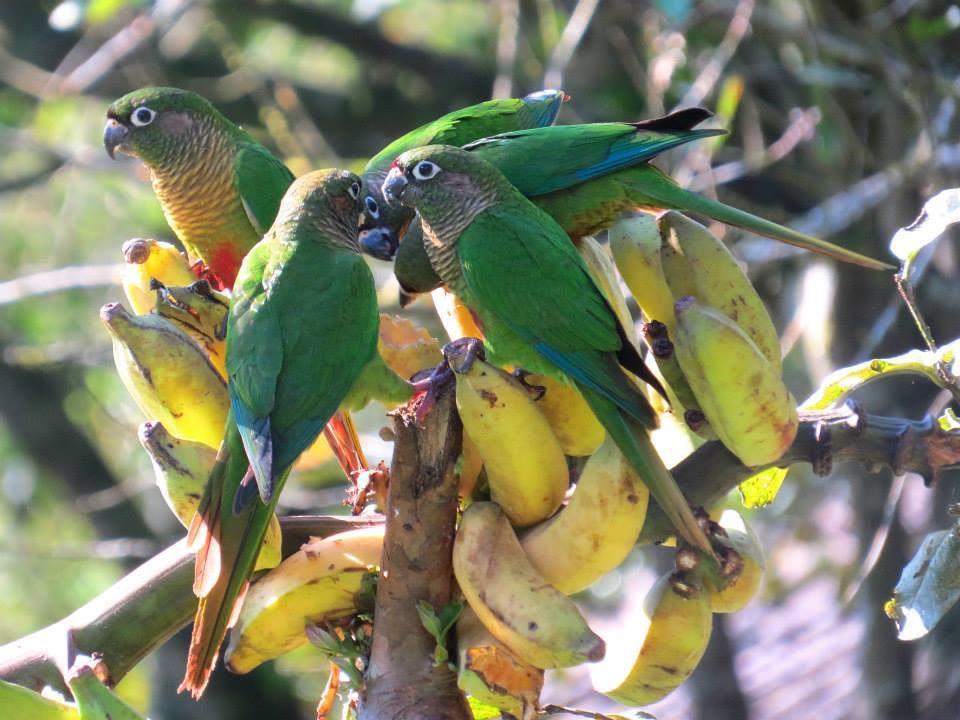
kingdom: Animalia
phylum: Chordata
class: Aves
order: Psittaciformes
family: Psittacidae
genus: Pyrrhura
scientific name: Pyrrhura frontalis
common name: Maroon-bellied parakeet
